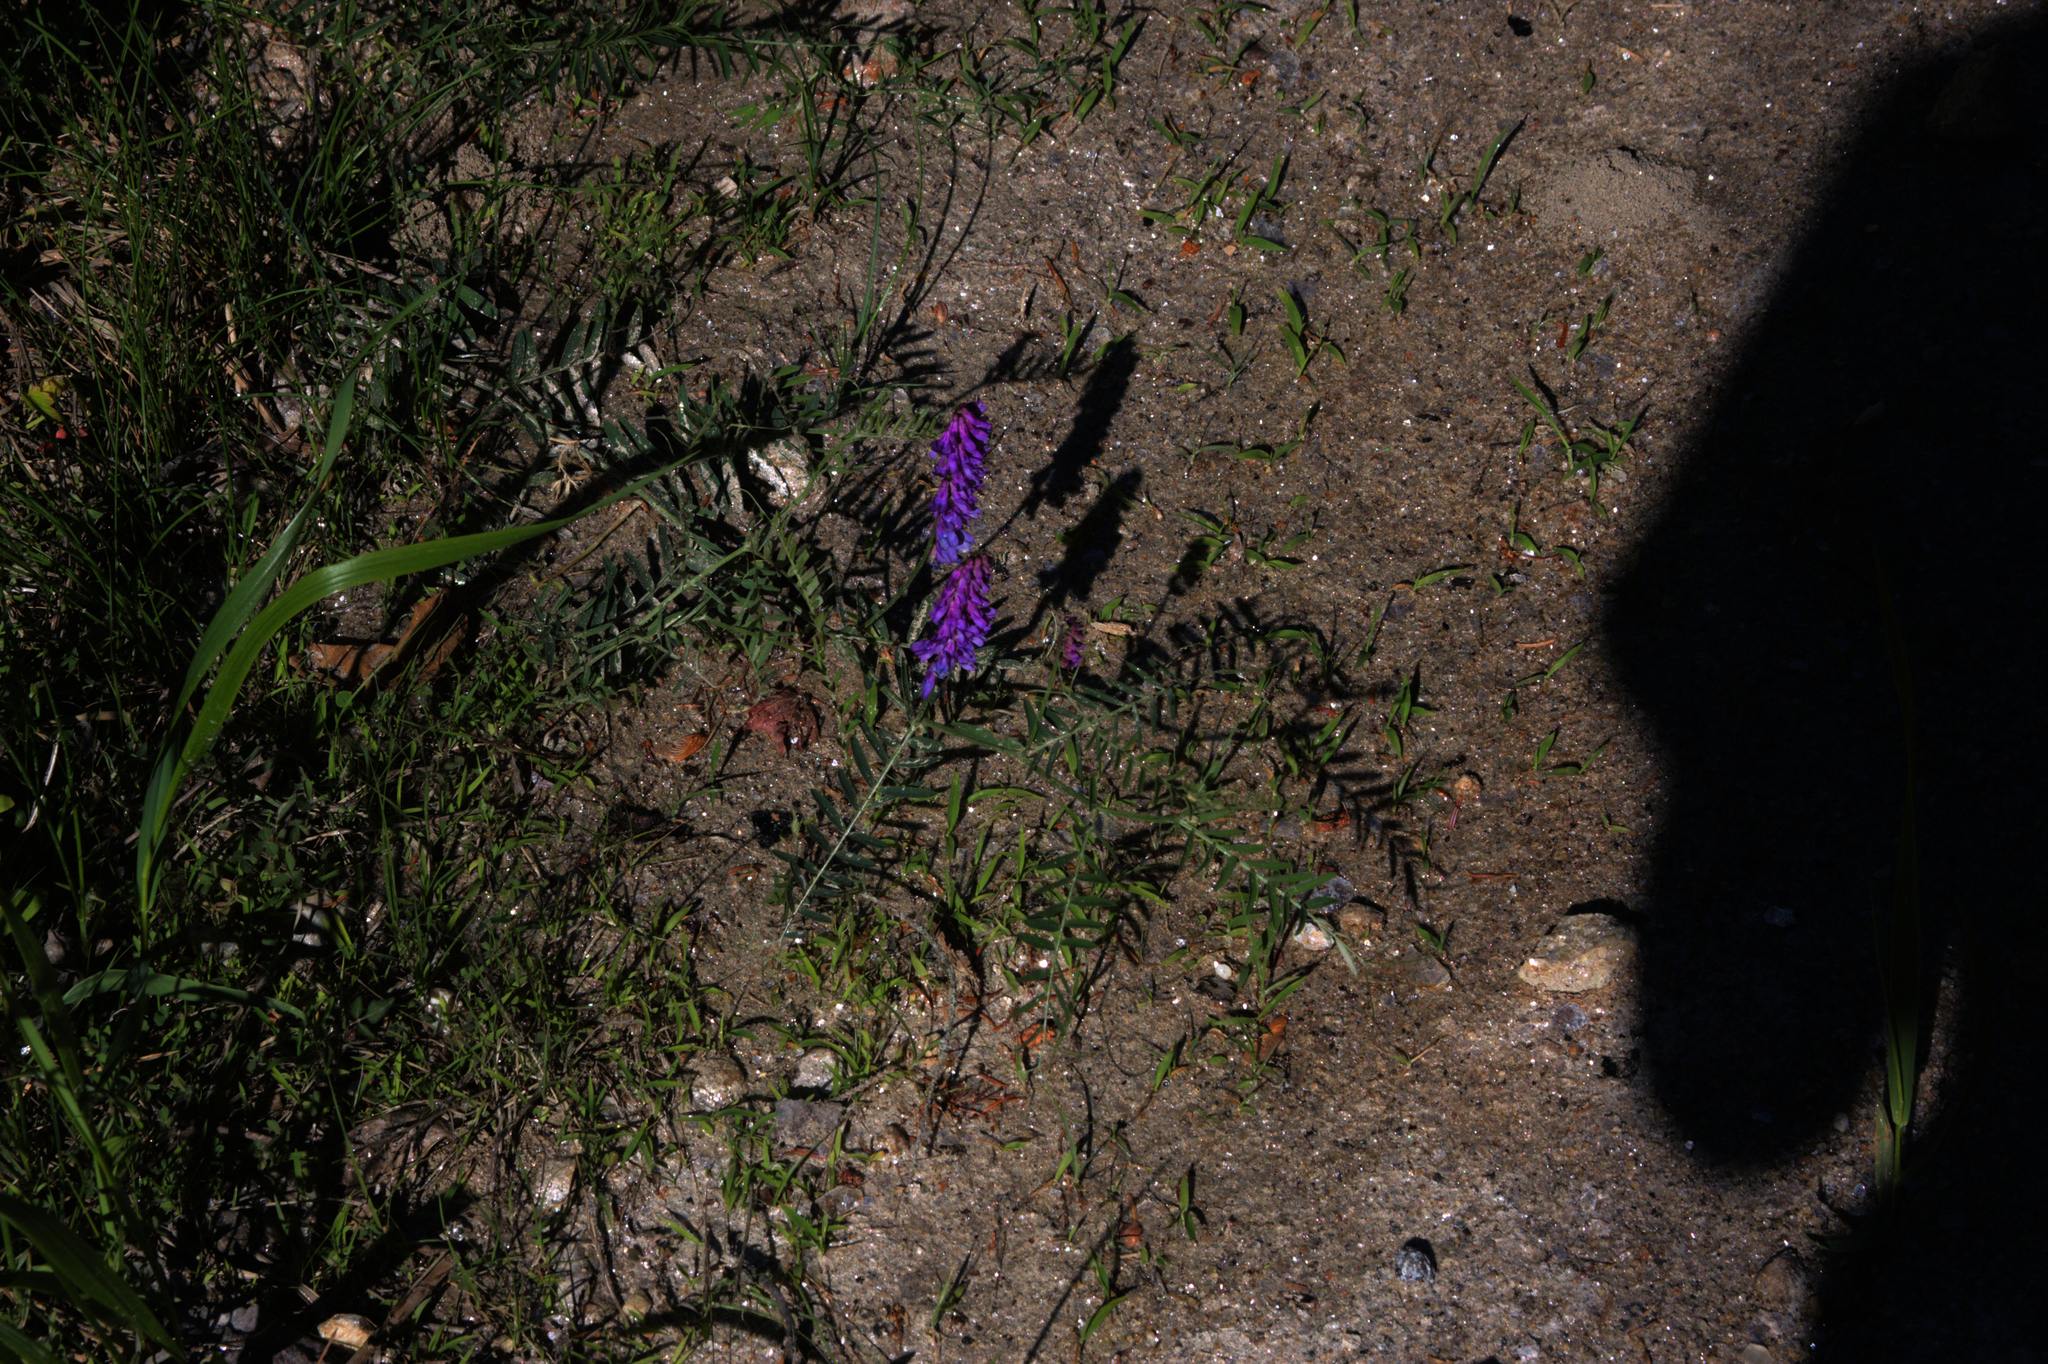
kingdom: Plantae
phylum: Tracheophyta
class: Magnoliopsida
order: Fabales
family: Fabaceae
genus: Vicia
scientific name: Vicia cracca
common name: Bird vetch
